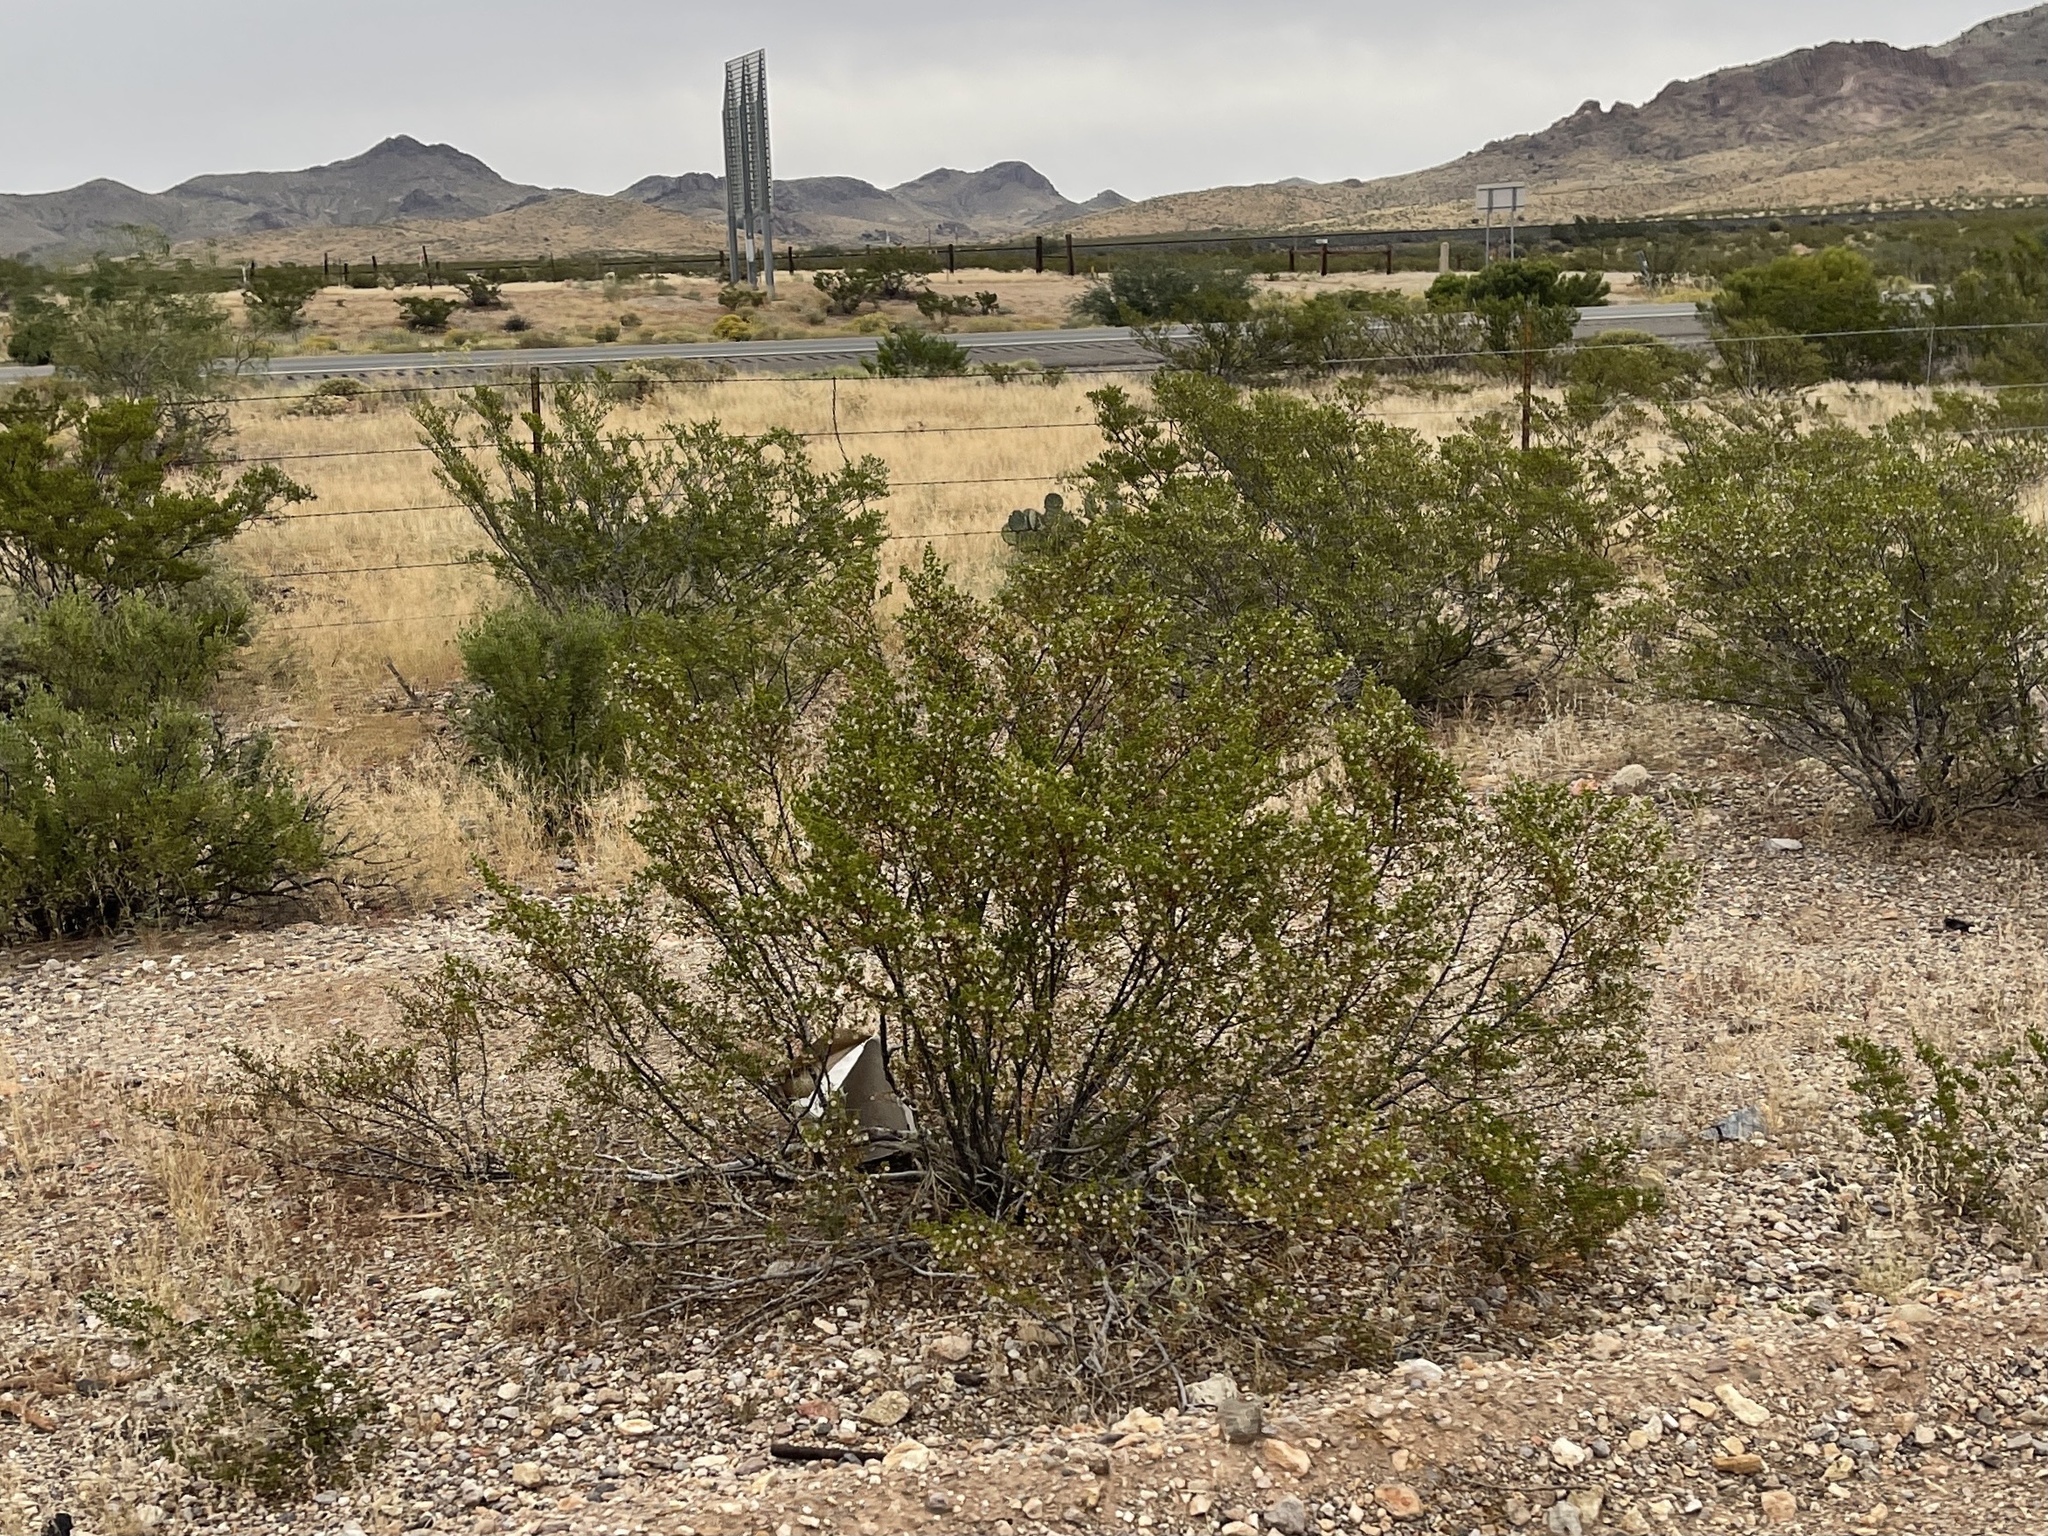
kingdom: Plantae
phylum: Tracheophyta
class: Magnoliopsida
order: Zygophyllales
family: Zygophyllaceae
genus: Larrea
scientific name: Larrea tridentata
